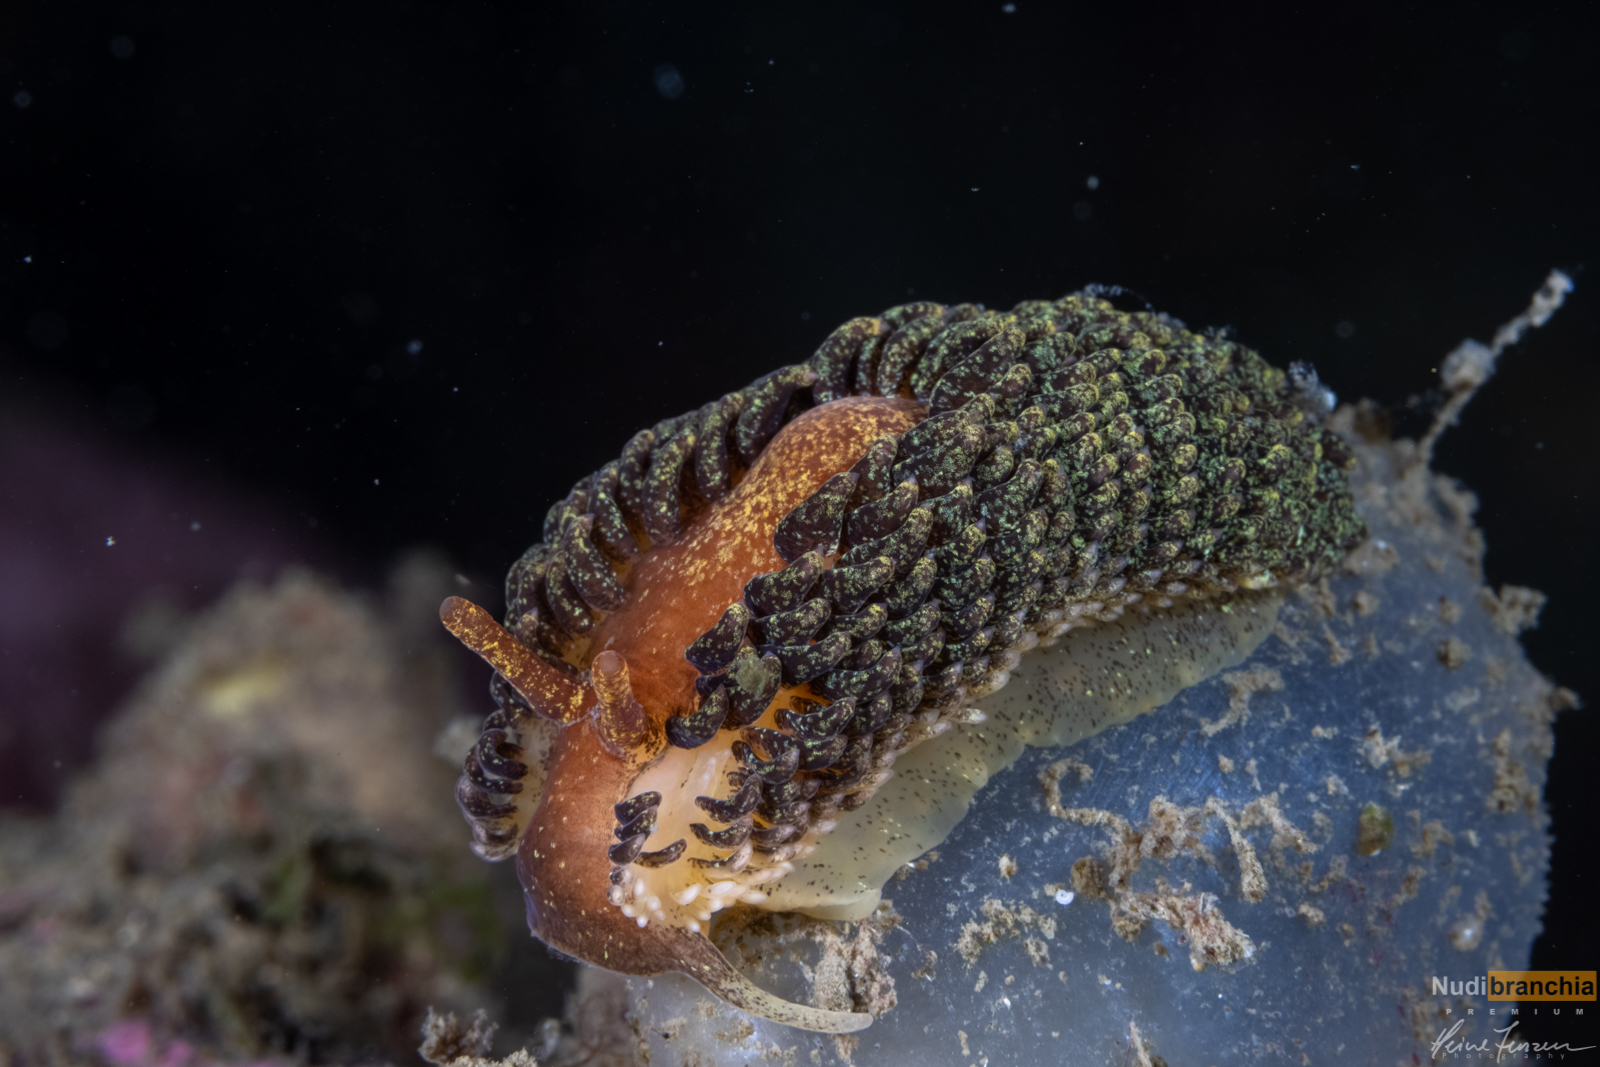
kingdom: Animalia
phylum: Mollusca
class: Gastropoda
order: Nudibranchia
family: Aeolidiidae
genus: Aeolidia
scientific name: Aeolidia papillosa
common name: Common grey sea slug
